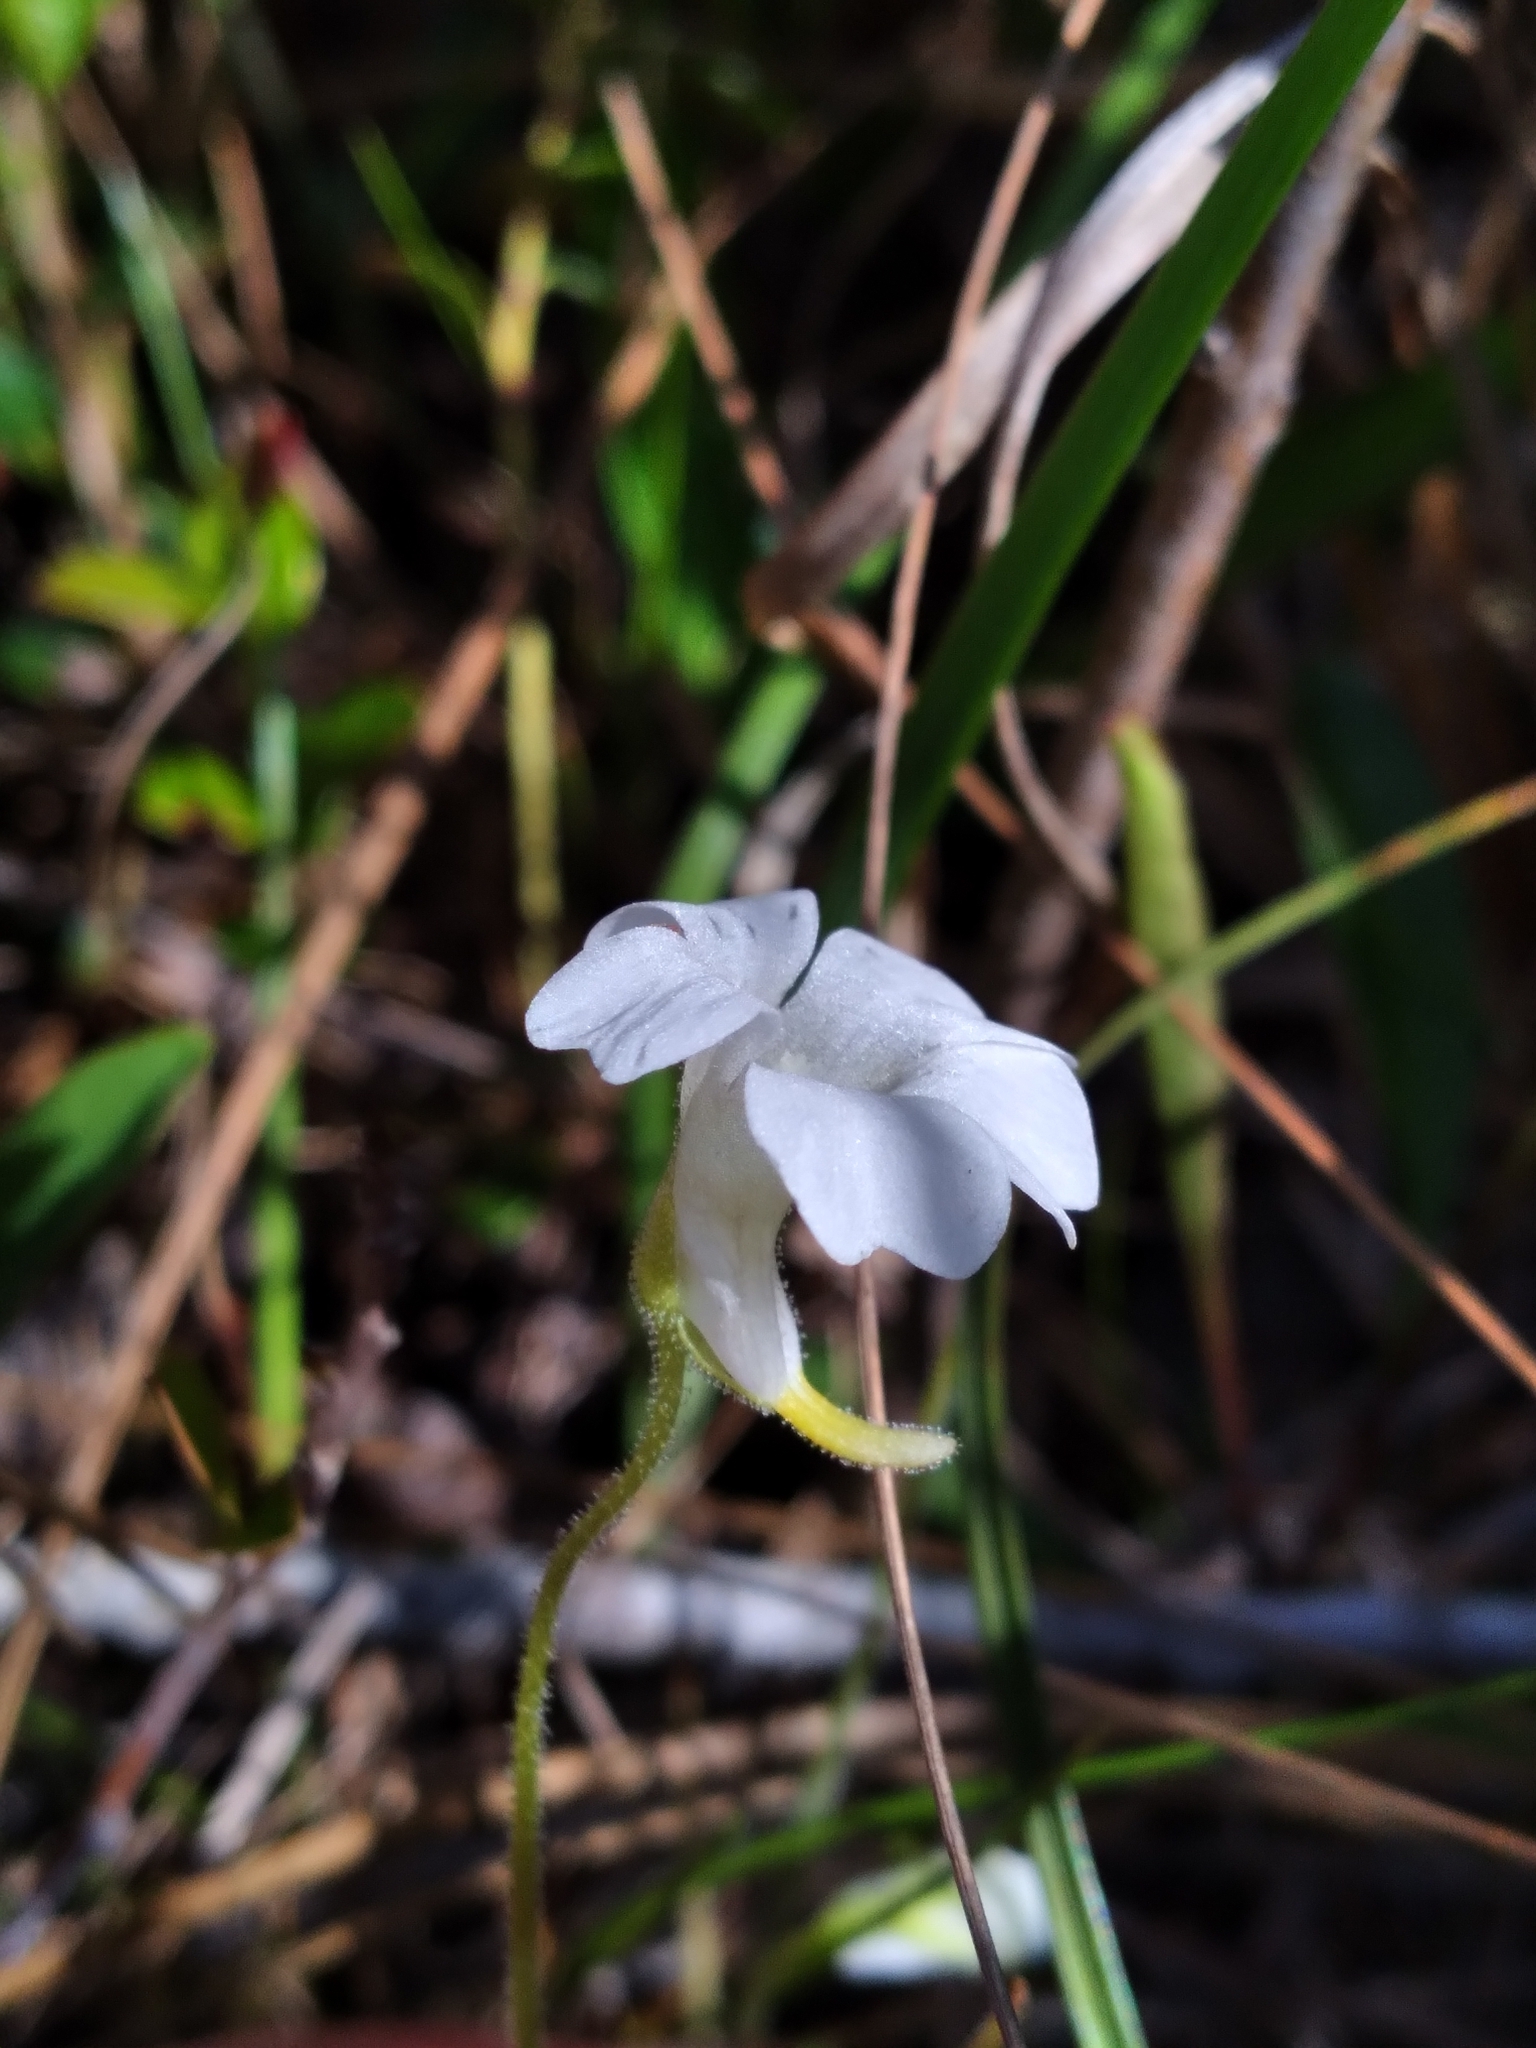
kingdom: Plantae
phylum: Tracheophyta
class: Magnoliopsida
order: Lamiales
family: Lentibulariaceae
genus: Pinguicula
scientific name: Pinguicula pumila
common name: Small butterwort
